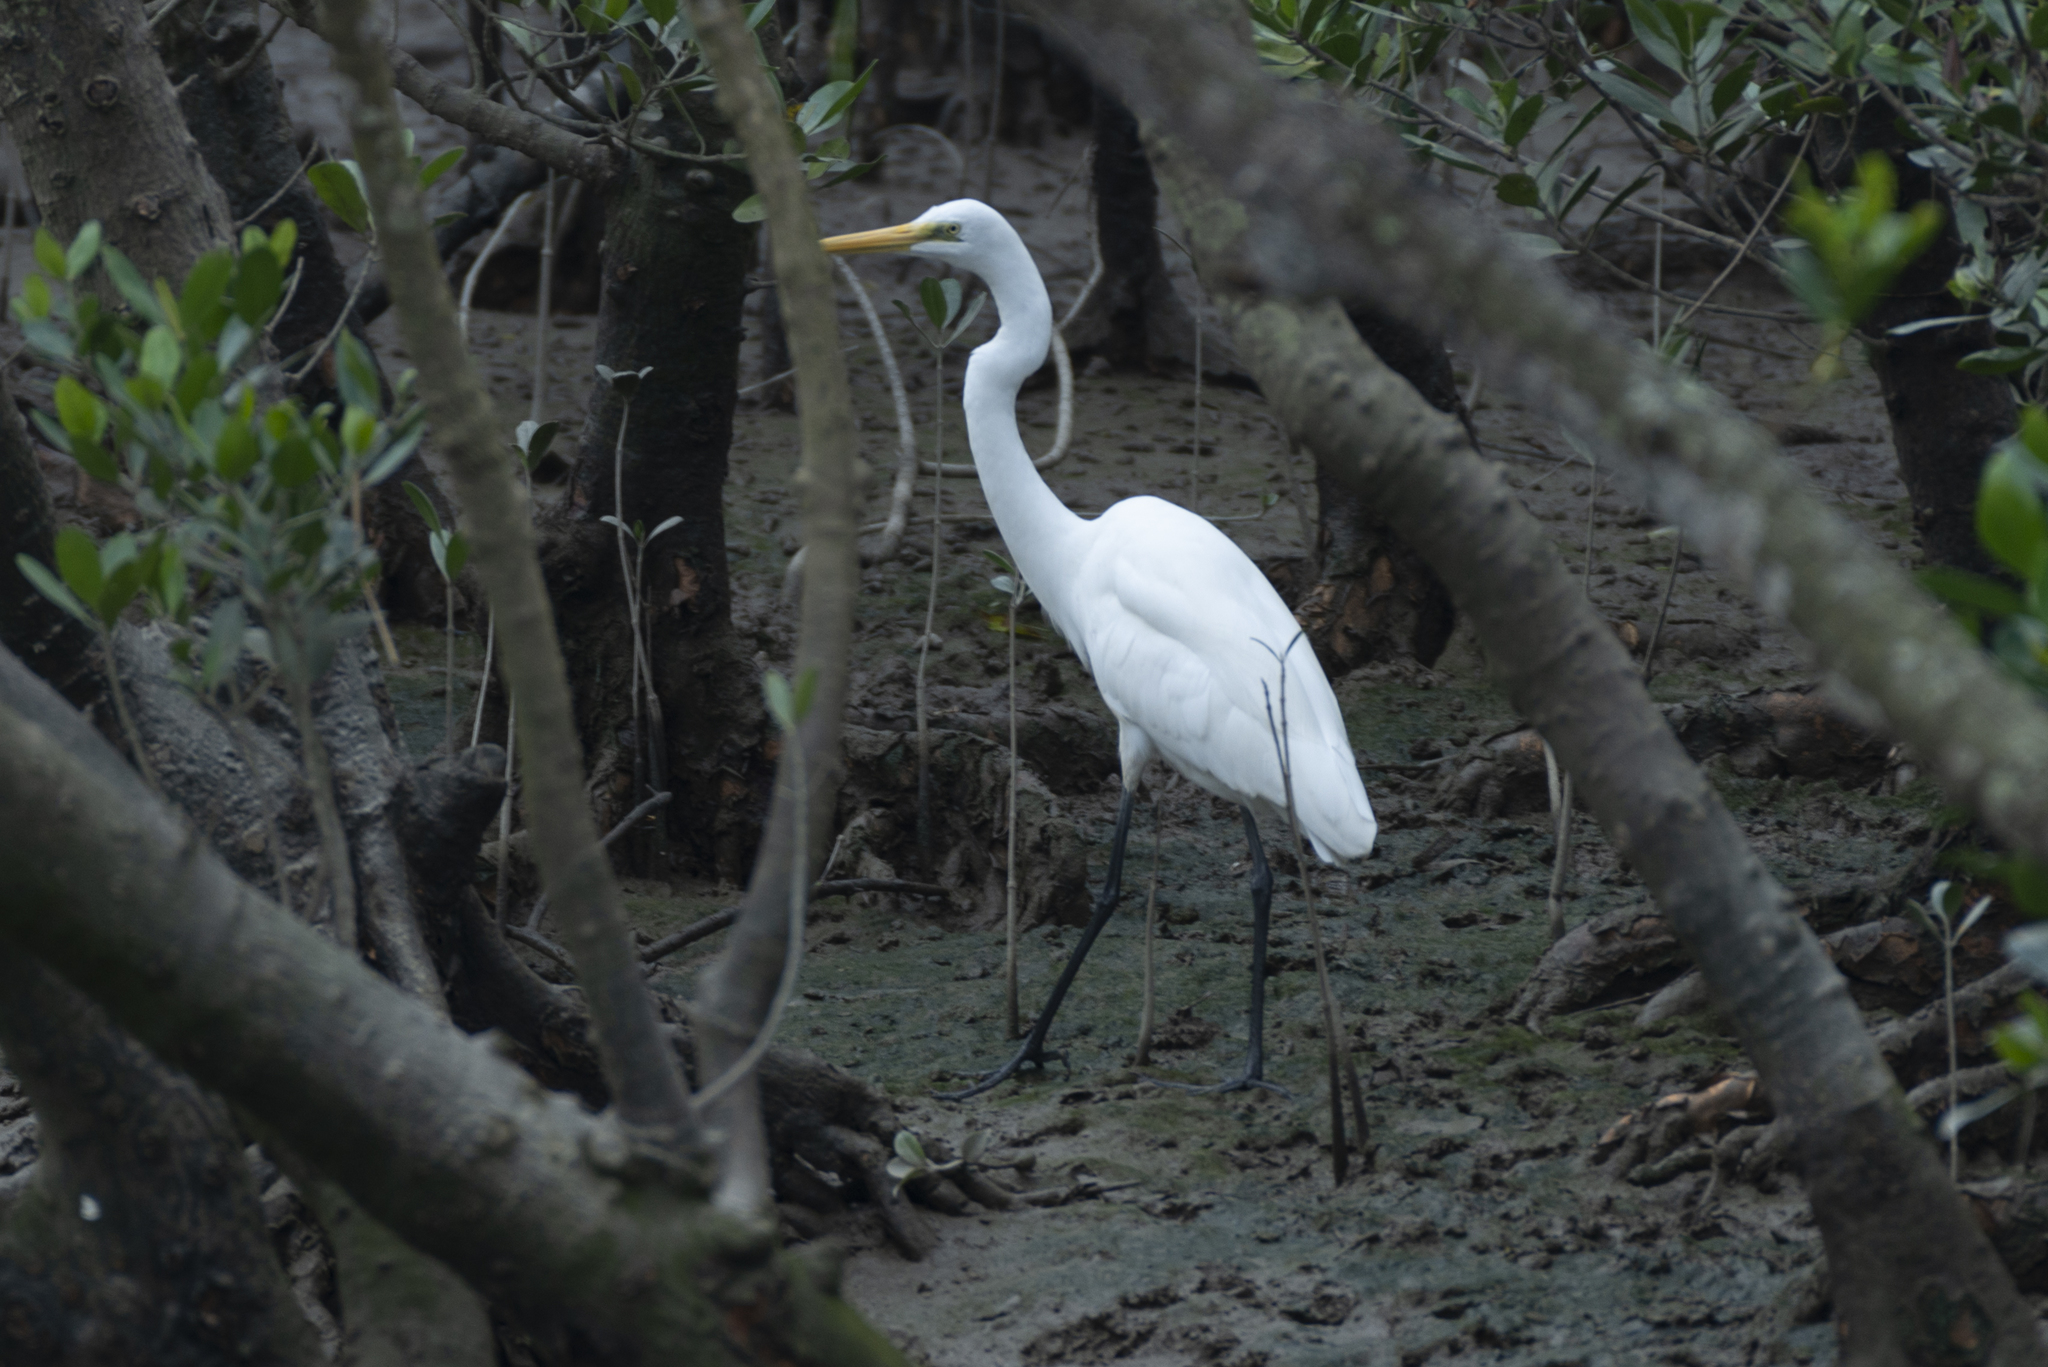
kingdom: Animalia
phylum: Chordata
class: Aves
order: Pelecaniformes
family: Ardeidae
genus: Ardea
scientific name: Ardea alba
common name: Great egret
